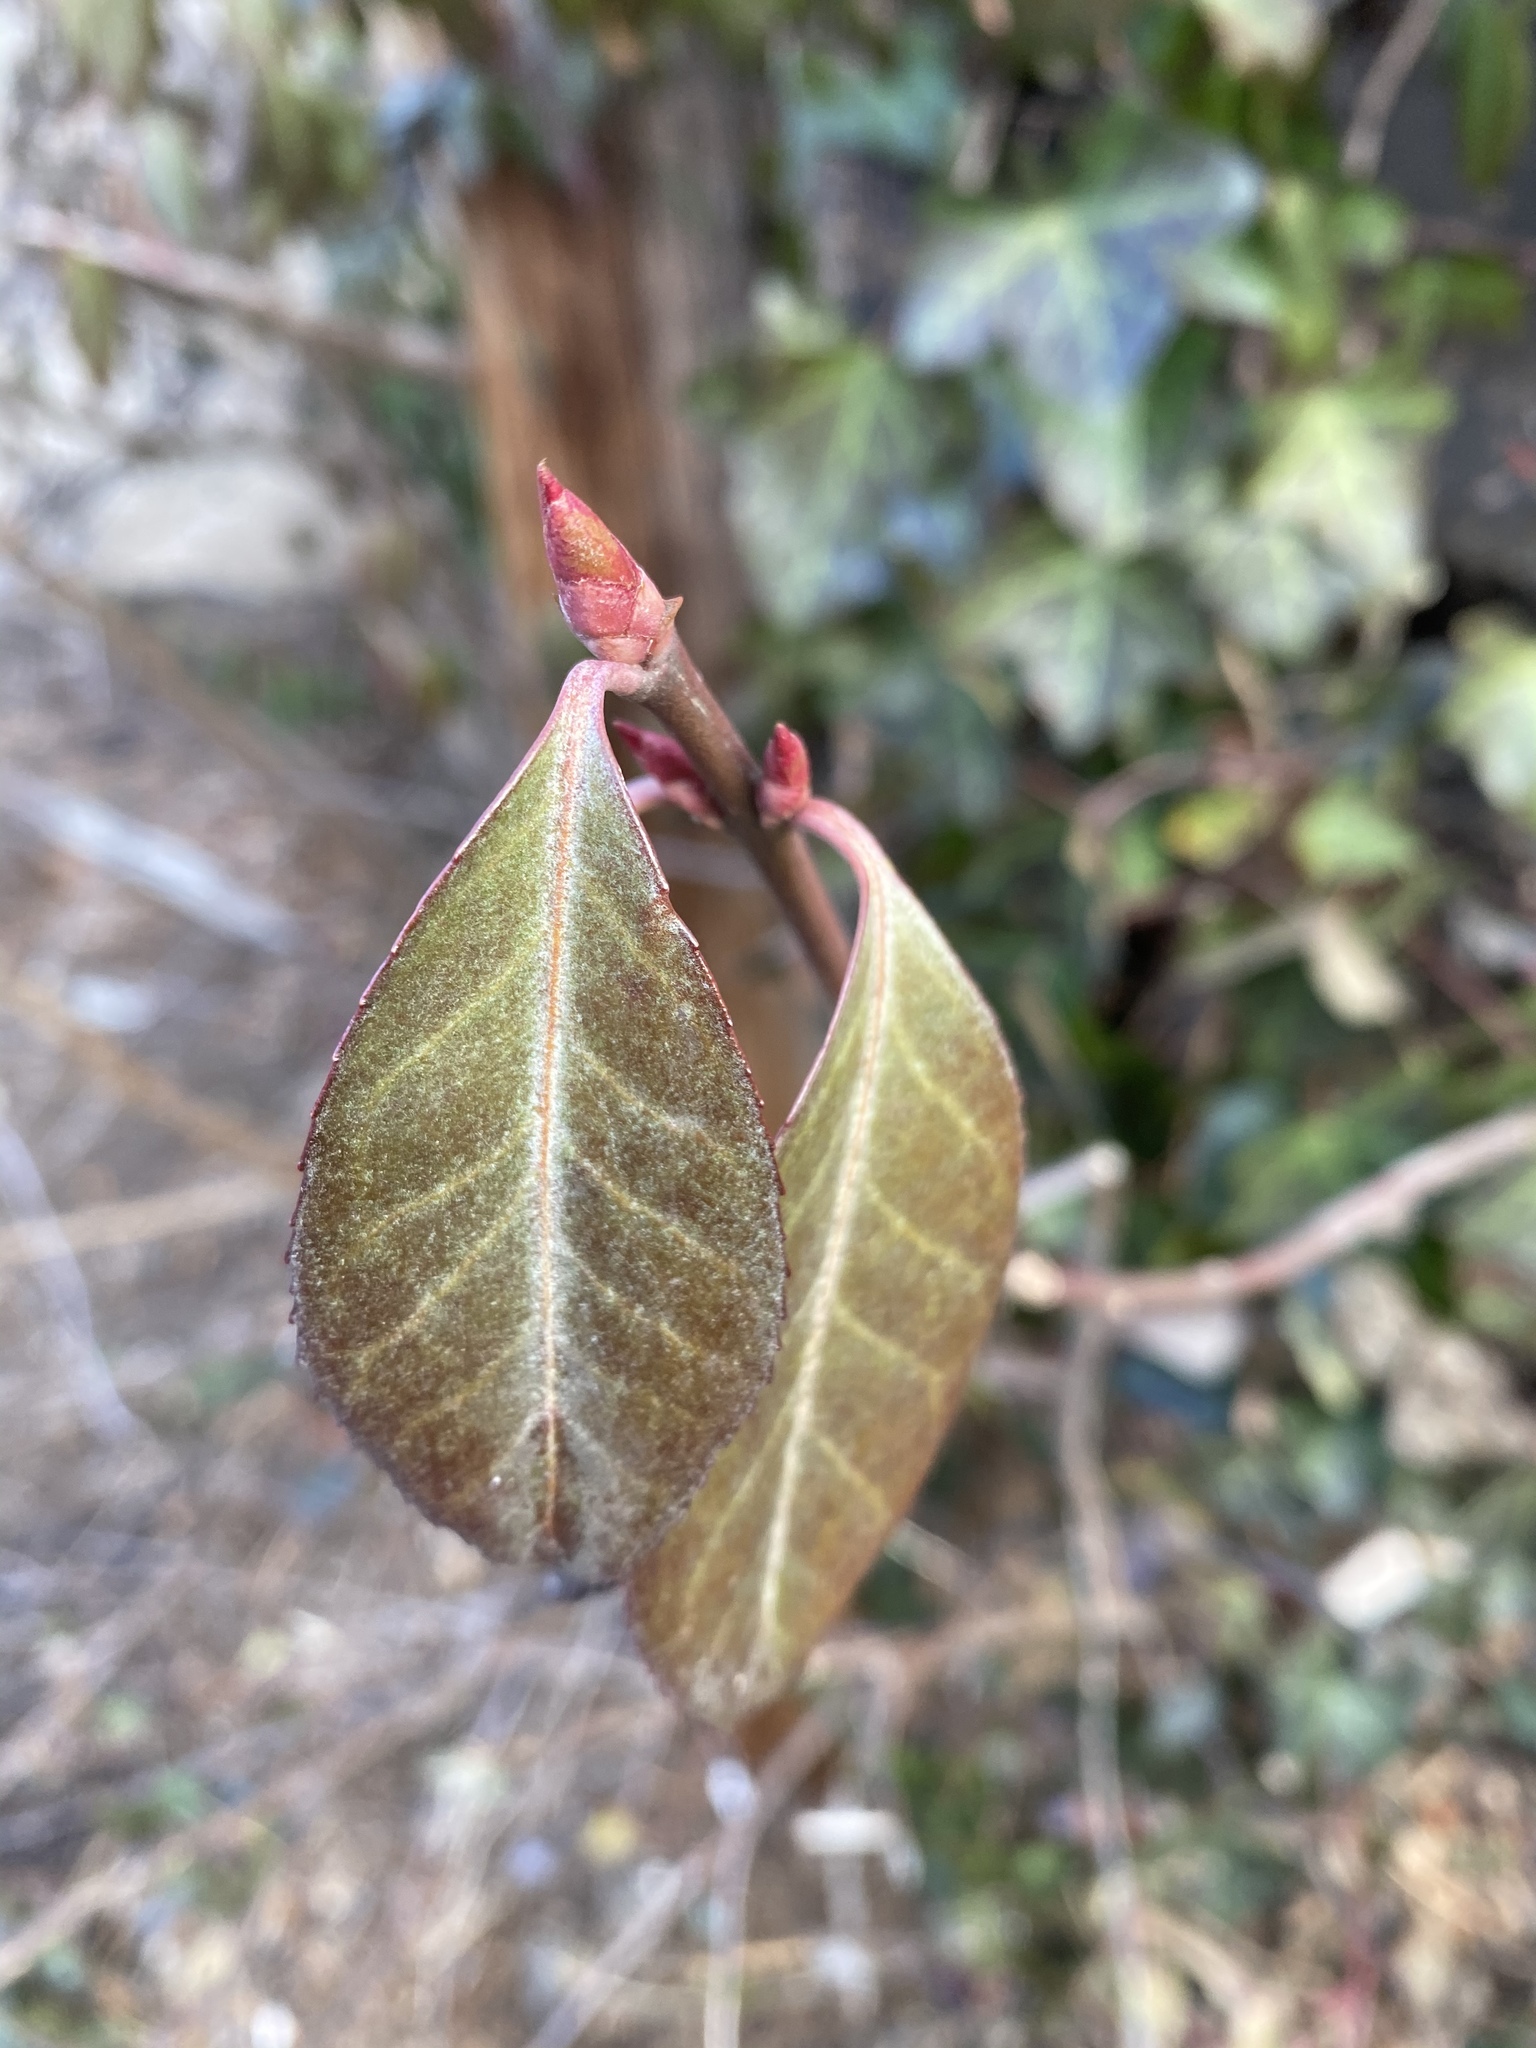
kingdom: Plantae
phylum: Tracheophyta
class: Magnoliopsida
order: Celastrales
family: Celastraceae
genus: Euonymus
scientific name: Euonymus fortunei
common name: Climbing euonymus
